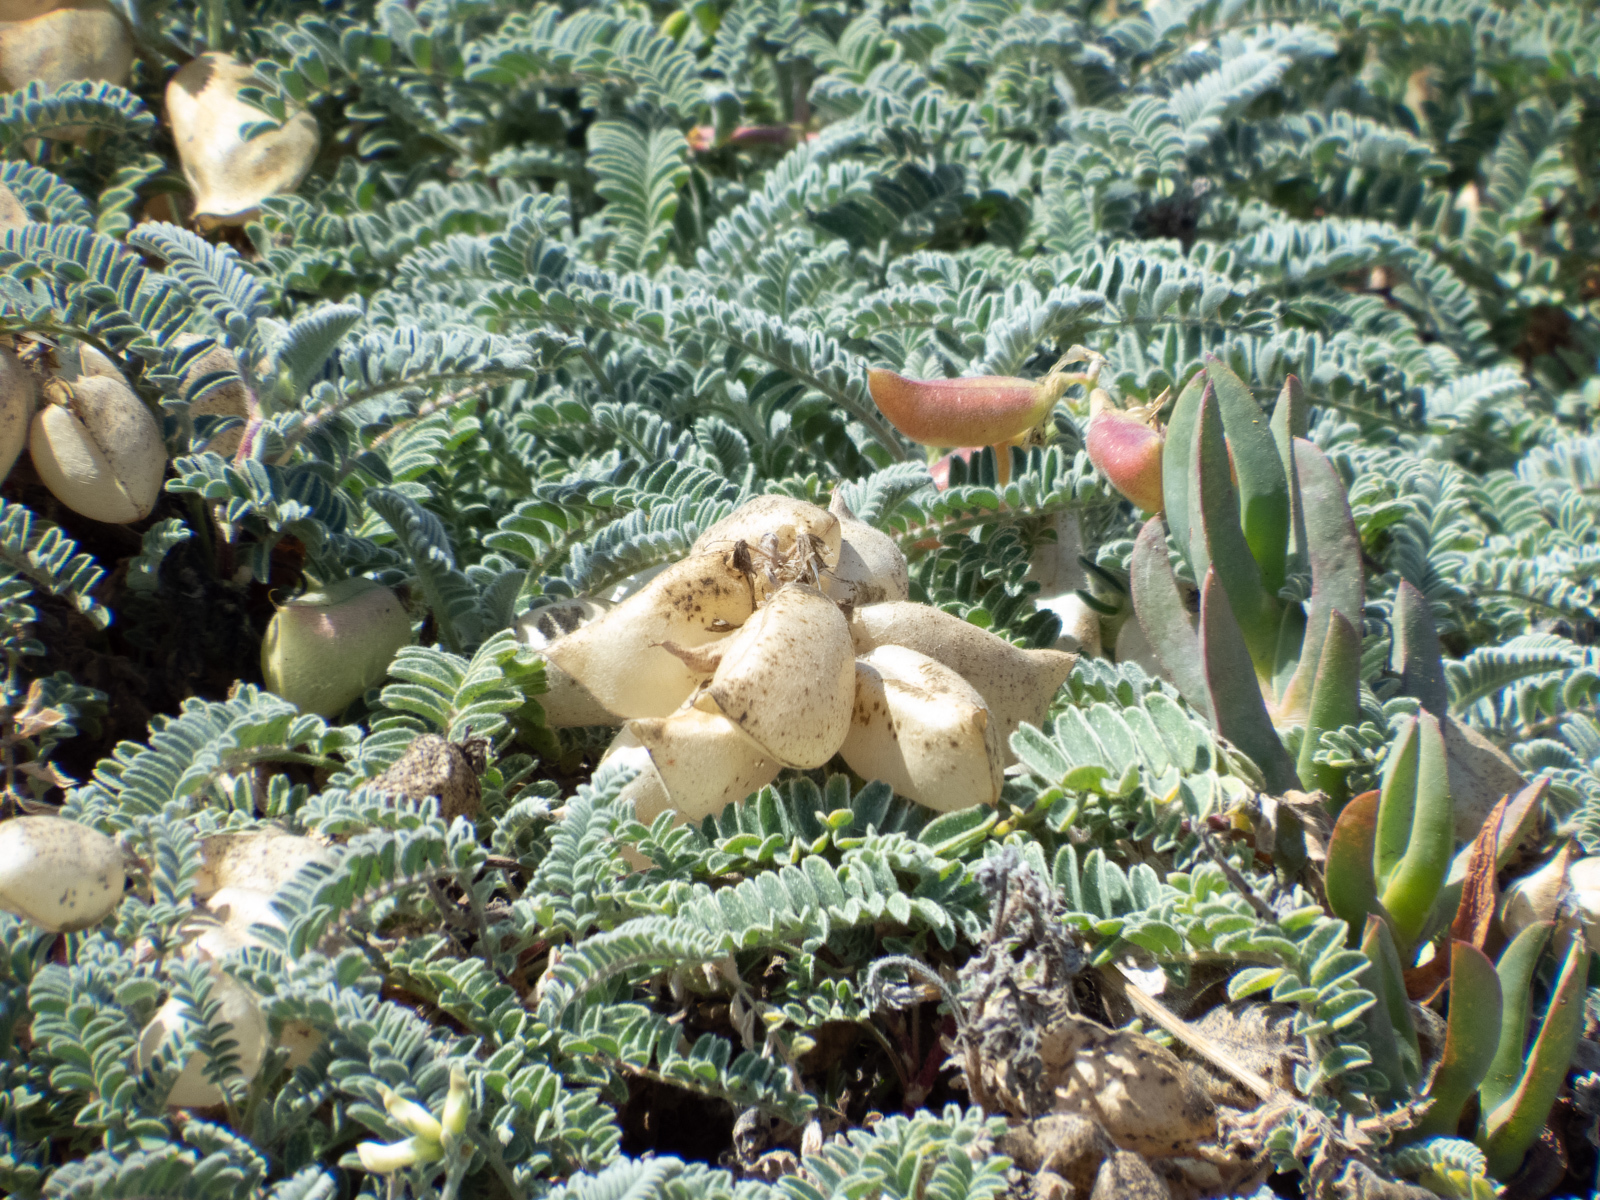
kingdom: Plantae
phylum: Tracheophyta
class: Magnoliopsida
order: Fabales
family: Fabaceae
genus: Astragalus
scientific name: Astragalus nuttallii
